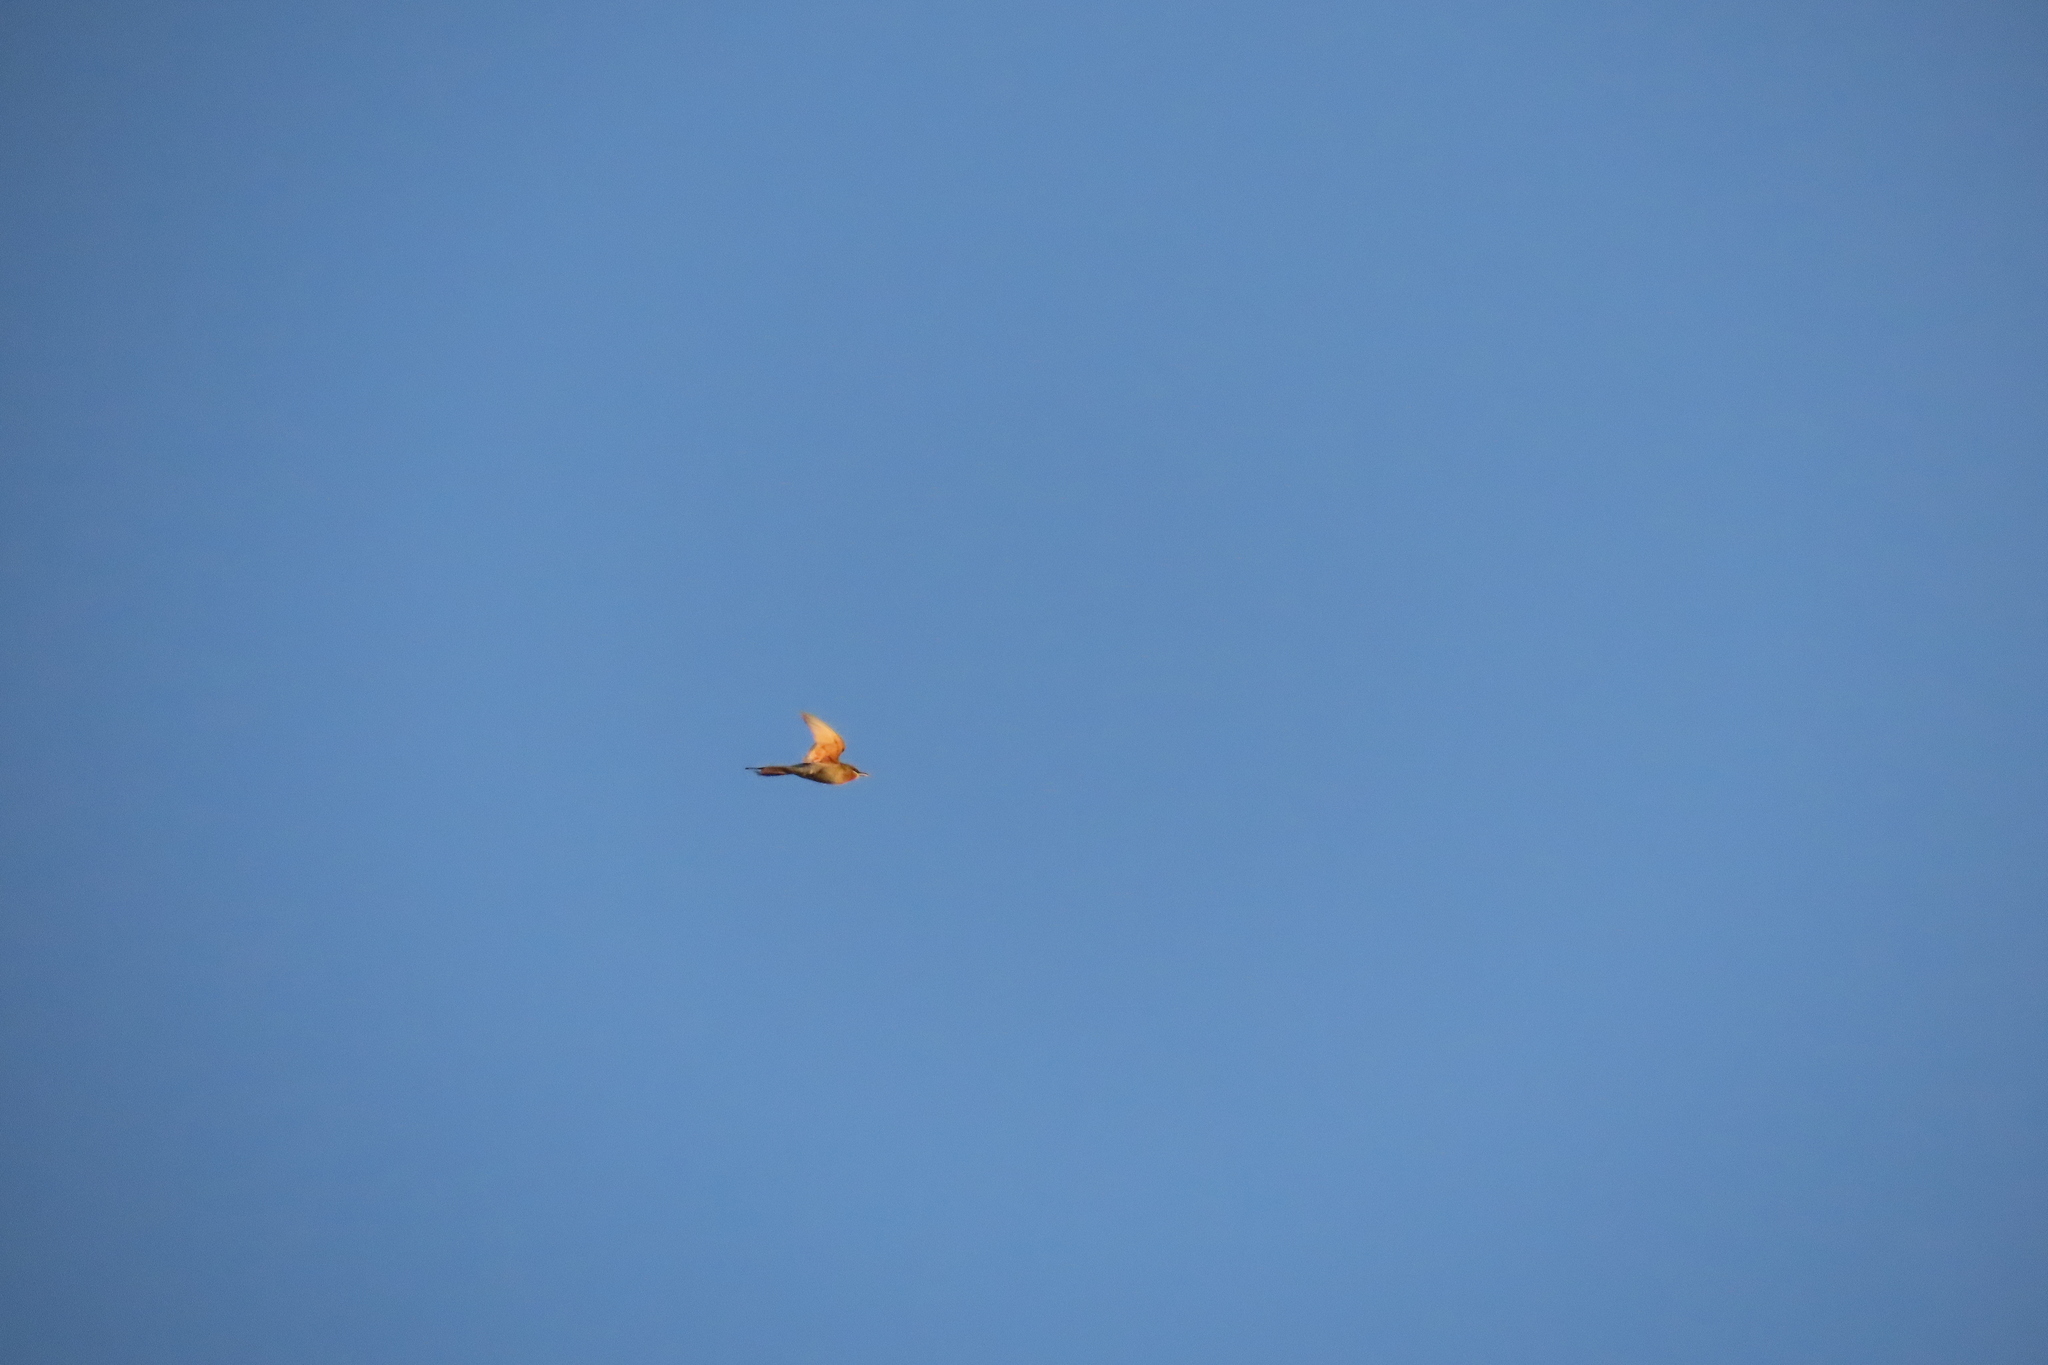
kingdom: Animalia
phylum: Chordata
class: Aves
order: Coraciiformes
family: Meropidae
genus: Merops
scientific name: Merops philippinus
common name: Blue-tailed bee-eater
